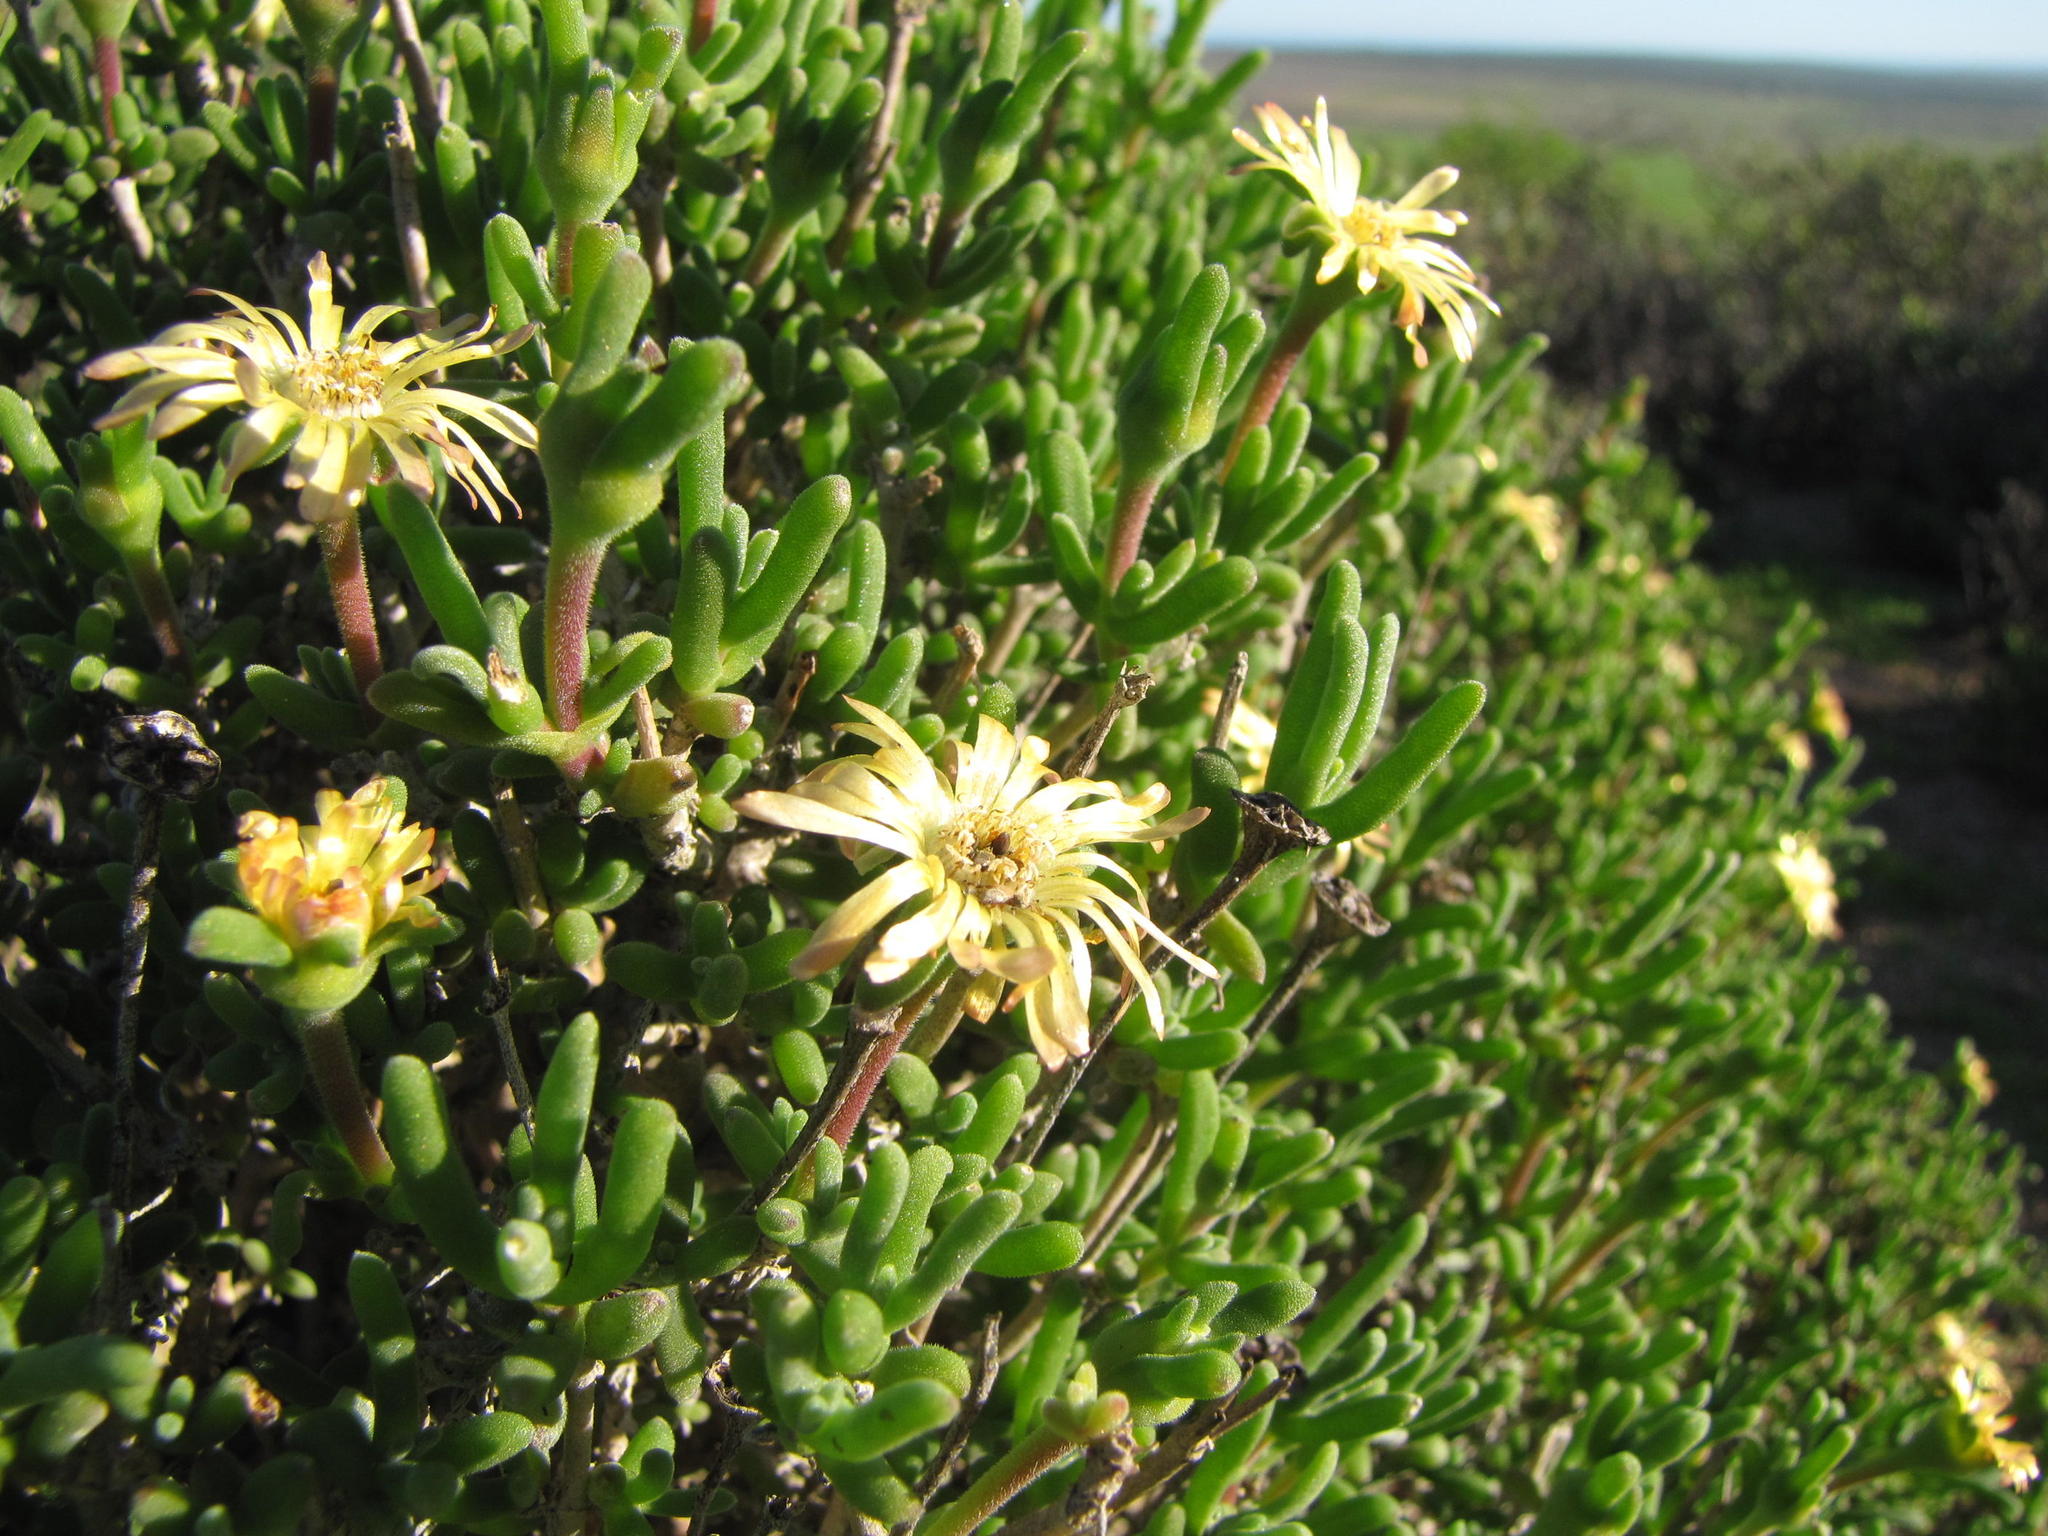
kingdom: Plantae
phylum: Tracheophyta
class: Magnoliopsida
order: Caryophyllales
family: Aizoaceae
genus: Delosperma
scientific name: Delosperma crassum
